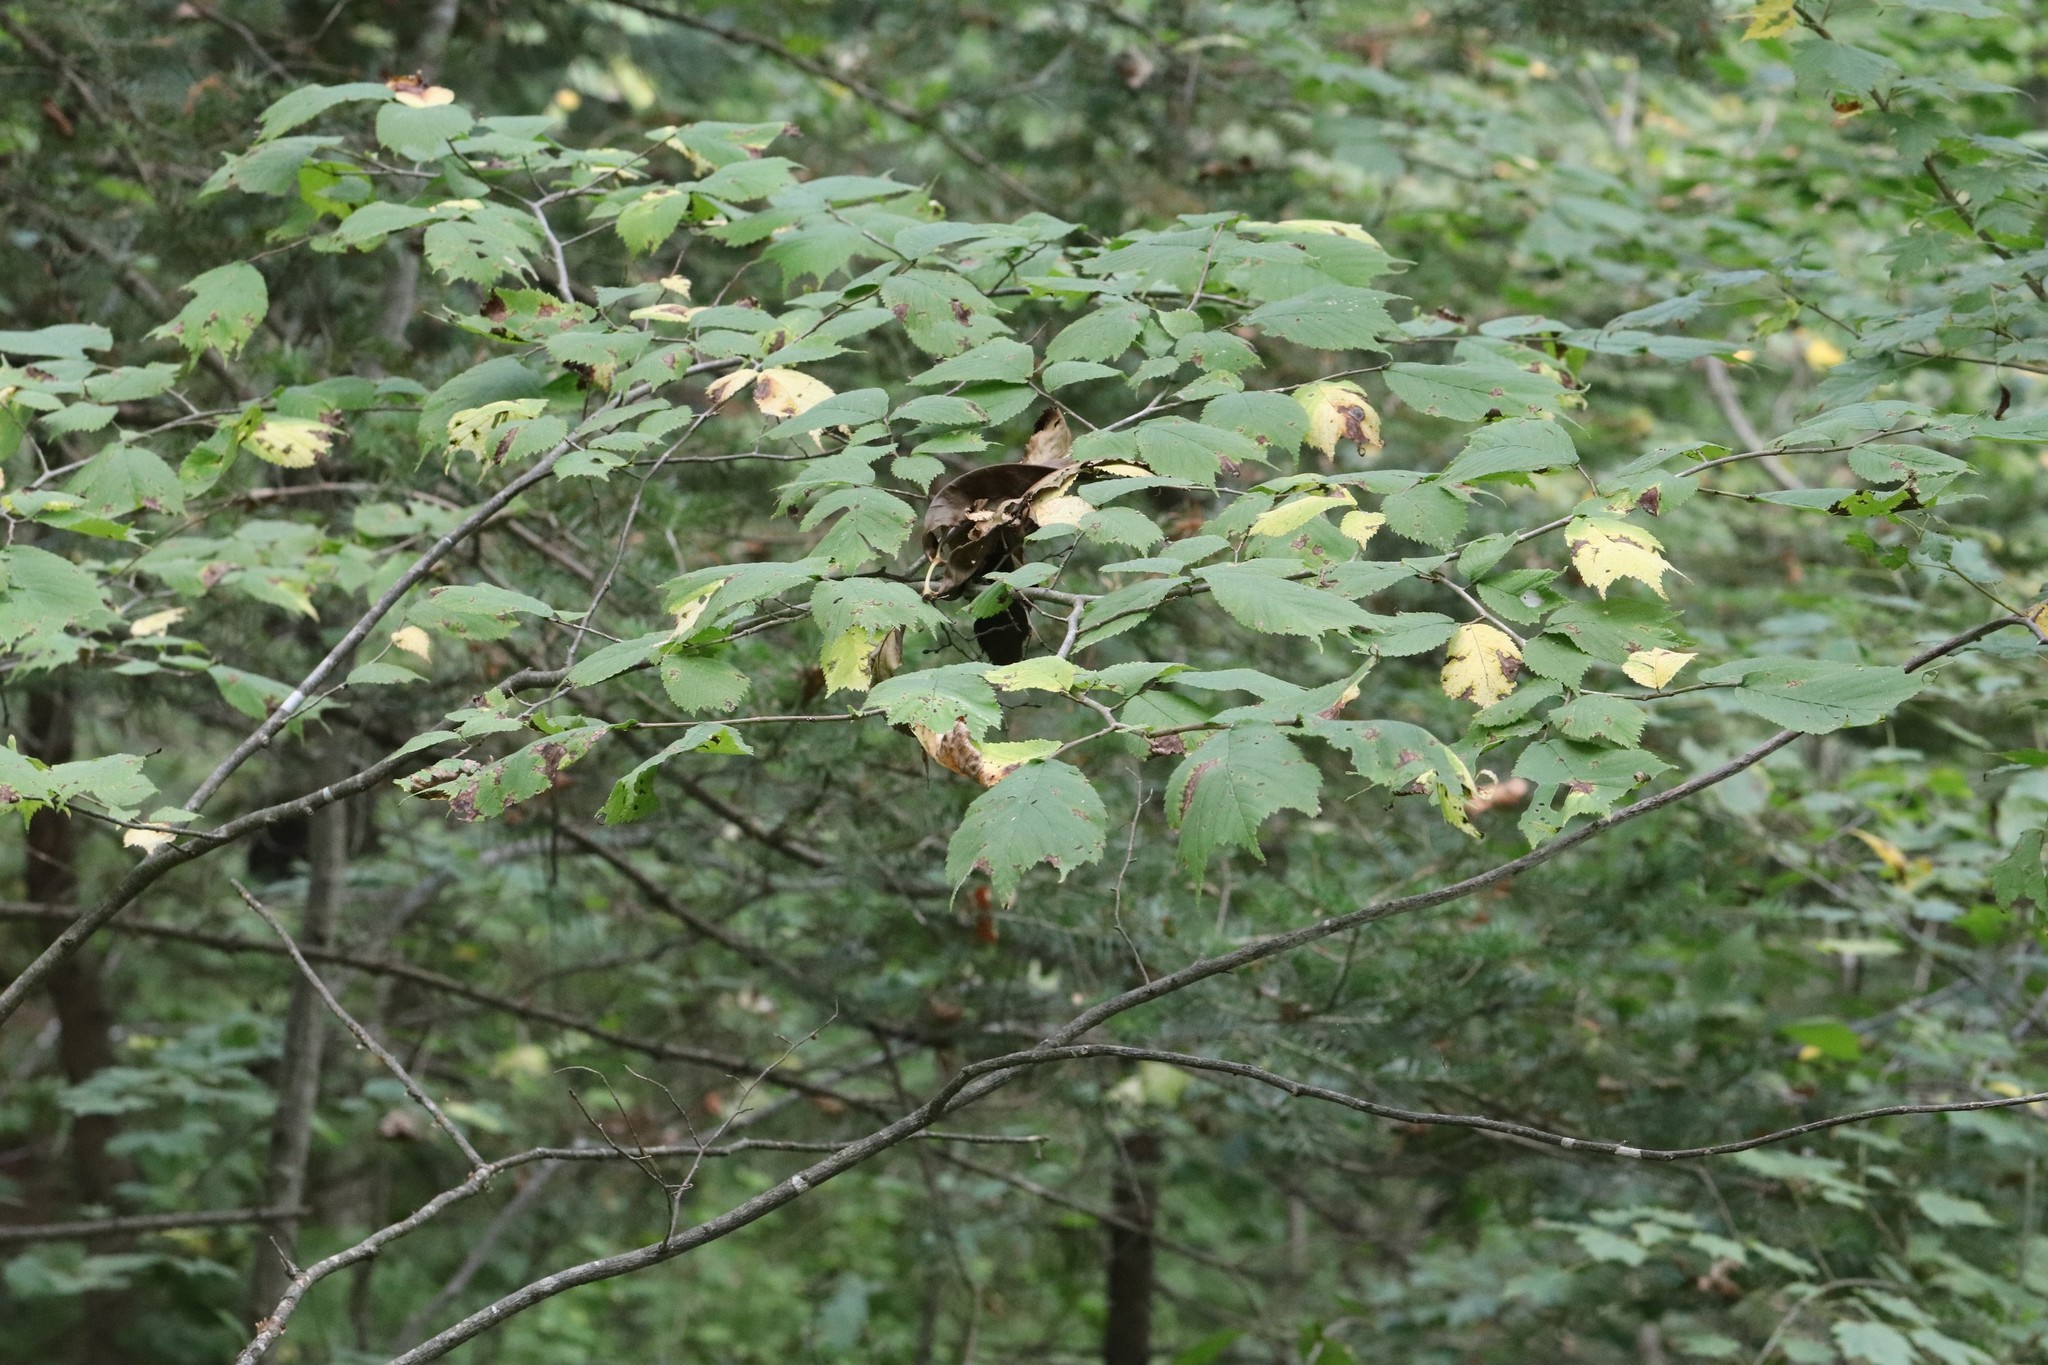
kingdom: Plantae
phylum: Tracheophyta
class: Magnoliopsida
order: Rosales
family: Ulmaceae
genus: Ulmus
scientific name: Ulmus laciniata
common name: Japanese elm
